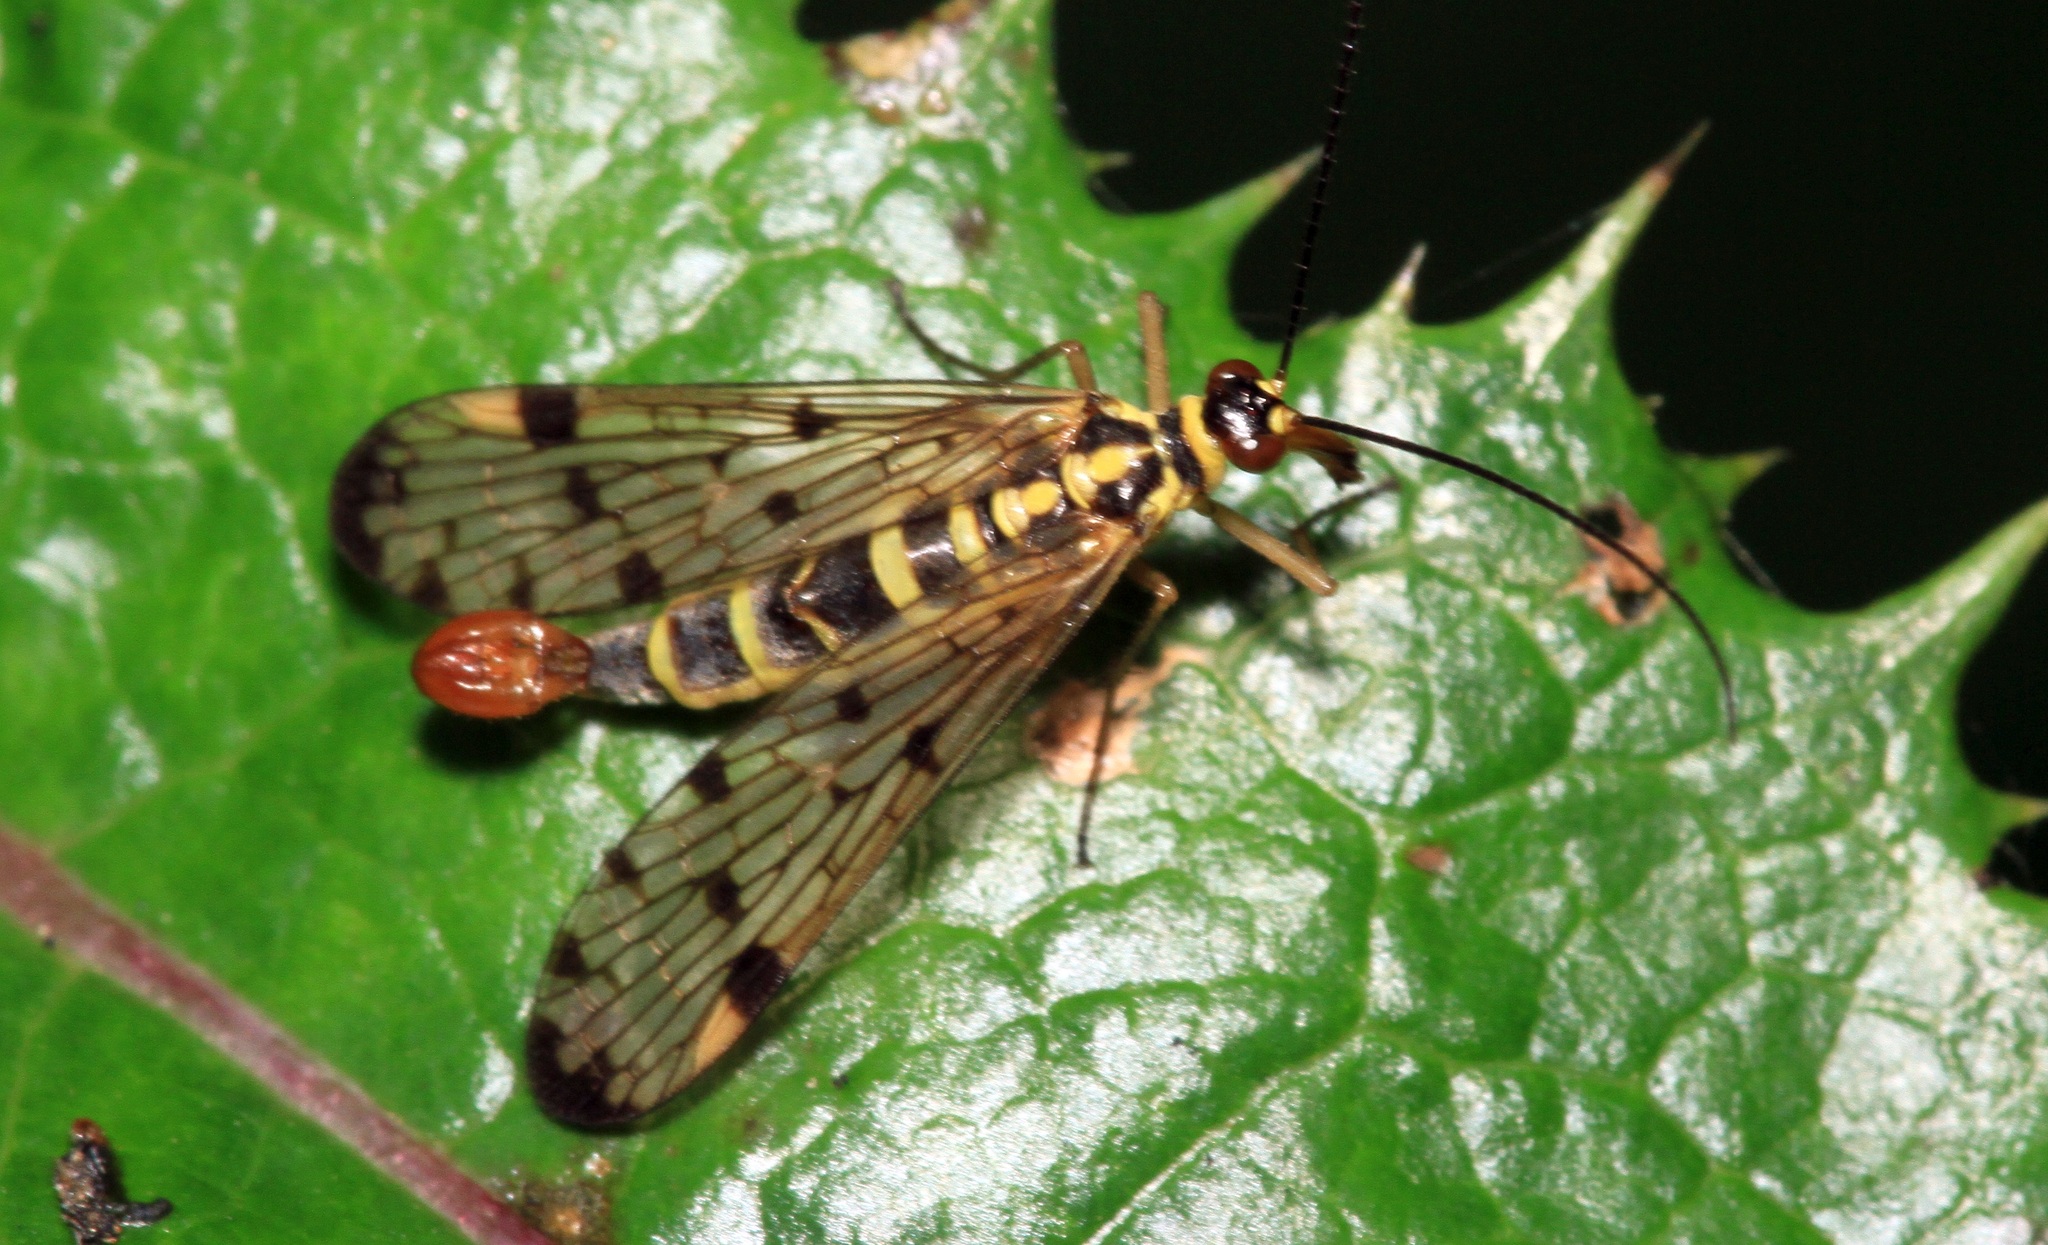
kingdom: Animalia
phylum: Arthropoda
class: Insecta
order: Mecoptera
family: Panorpidae
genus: Panorpa
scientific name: Panorpa germanica
